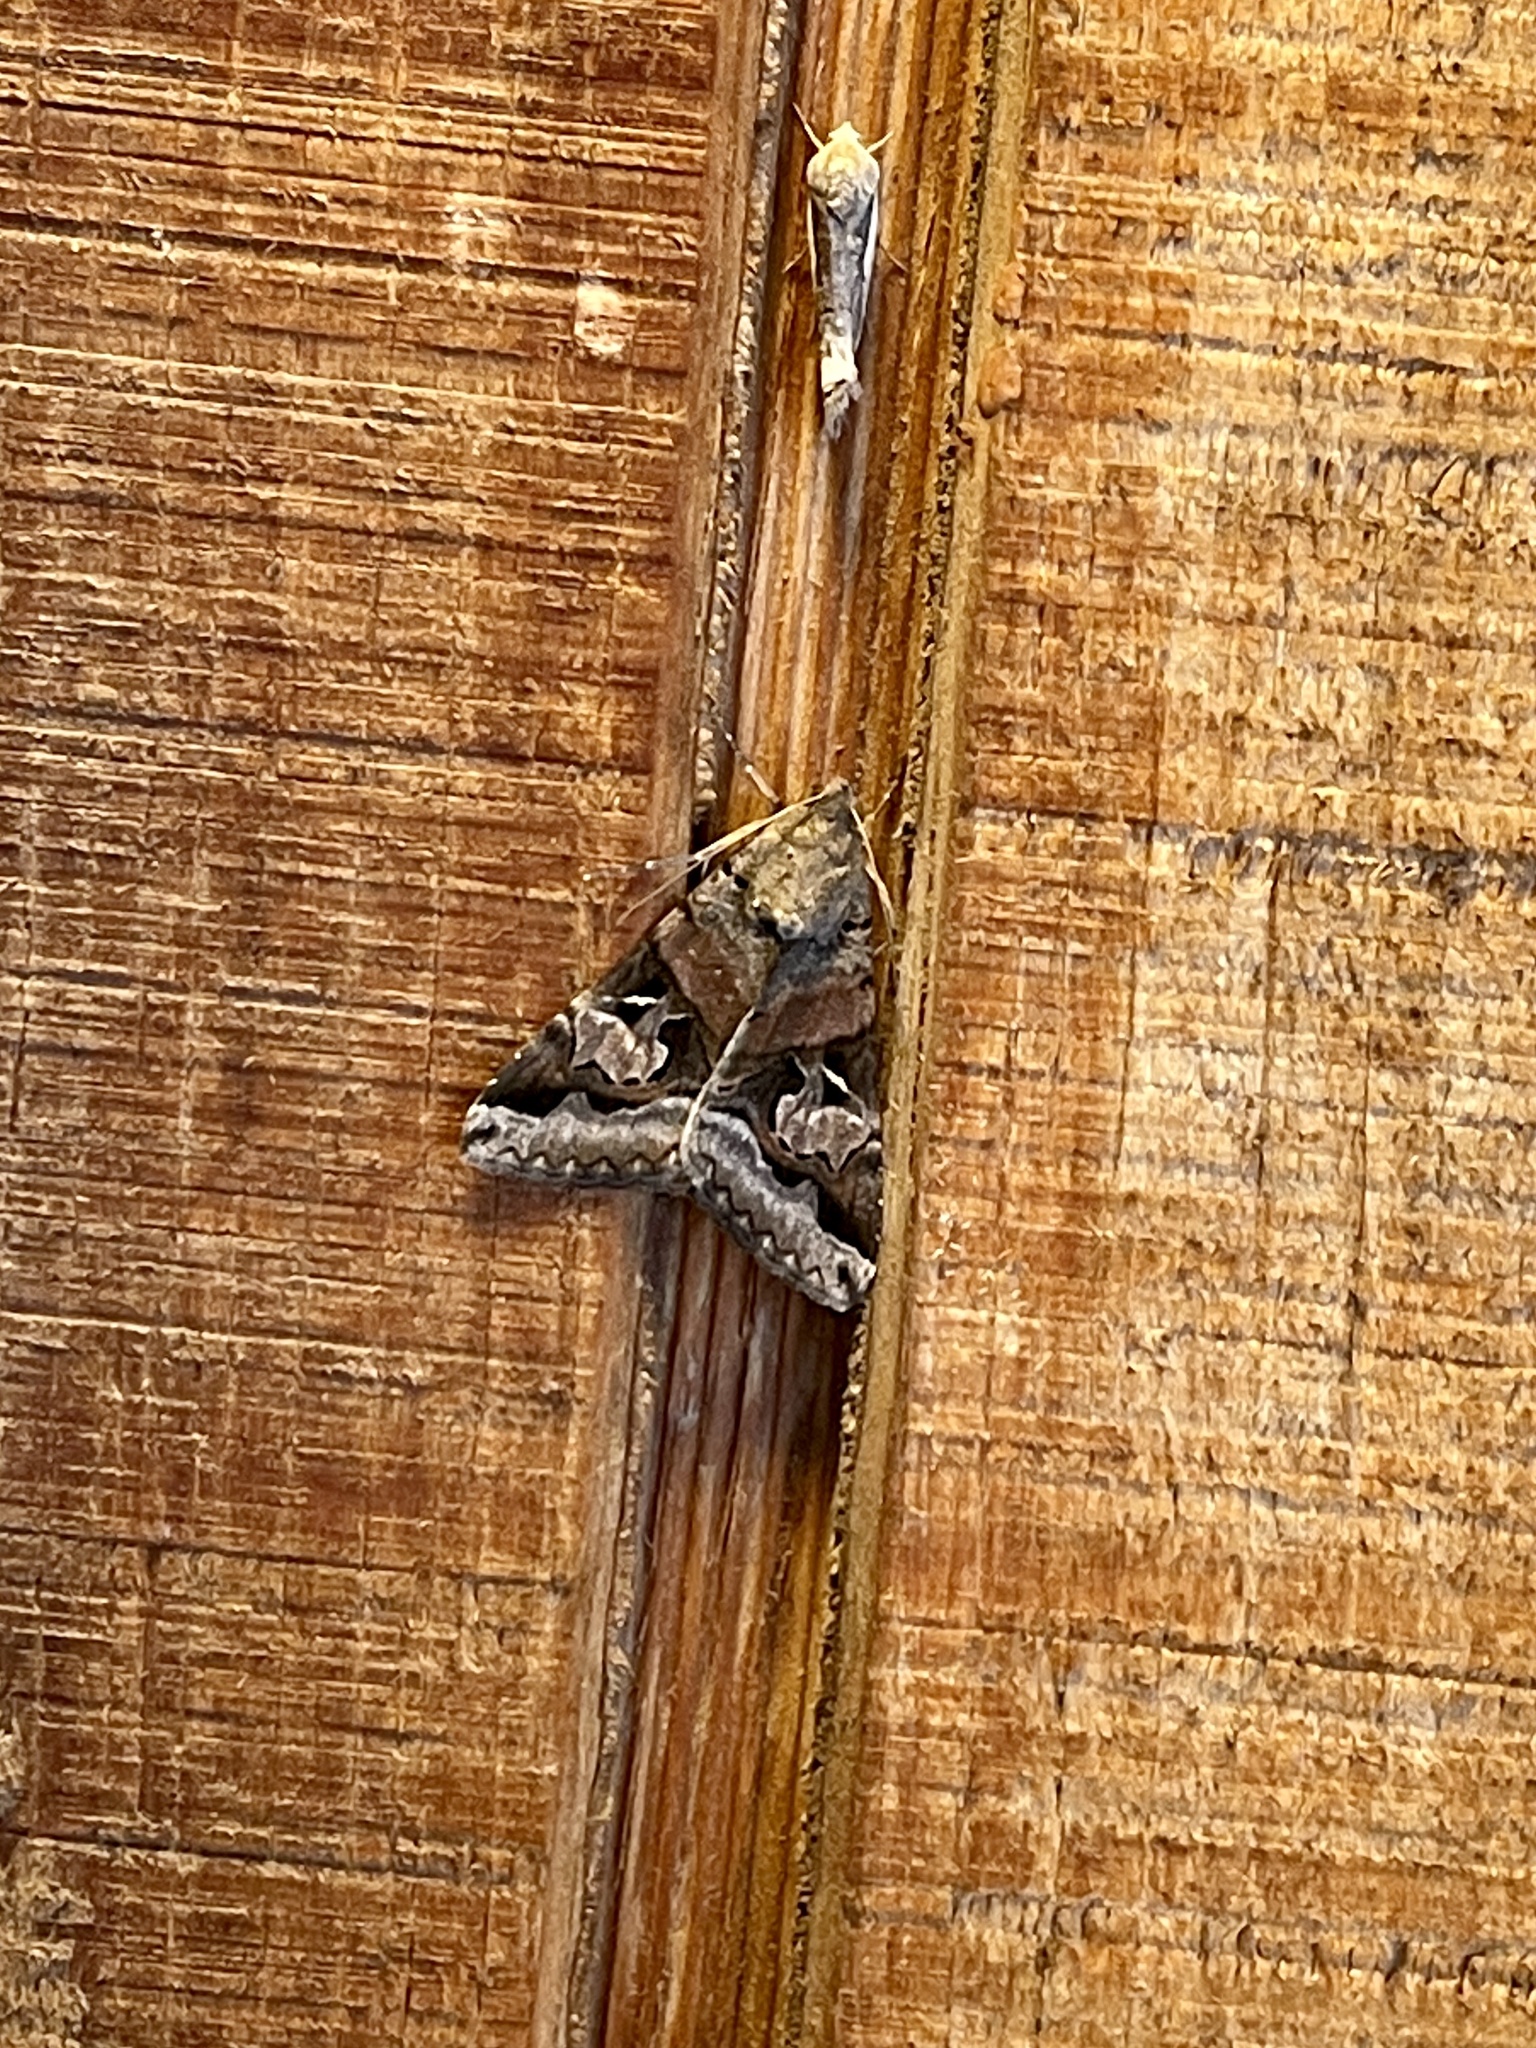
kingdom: Animalia
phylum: Arthropoda
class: Insecta
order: Lepidoptera
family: Erebidae
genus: Melipotis
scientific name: Melipotis indomita
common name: Moth
